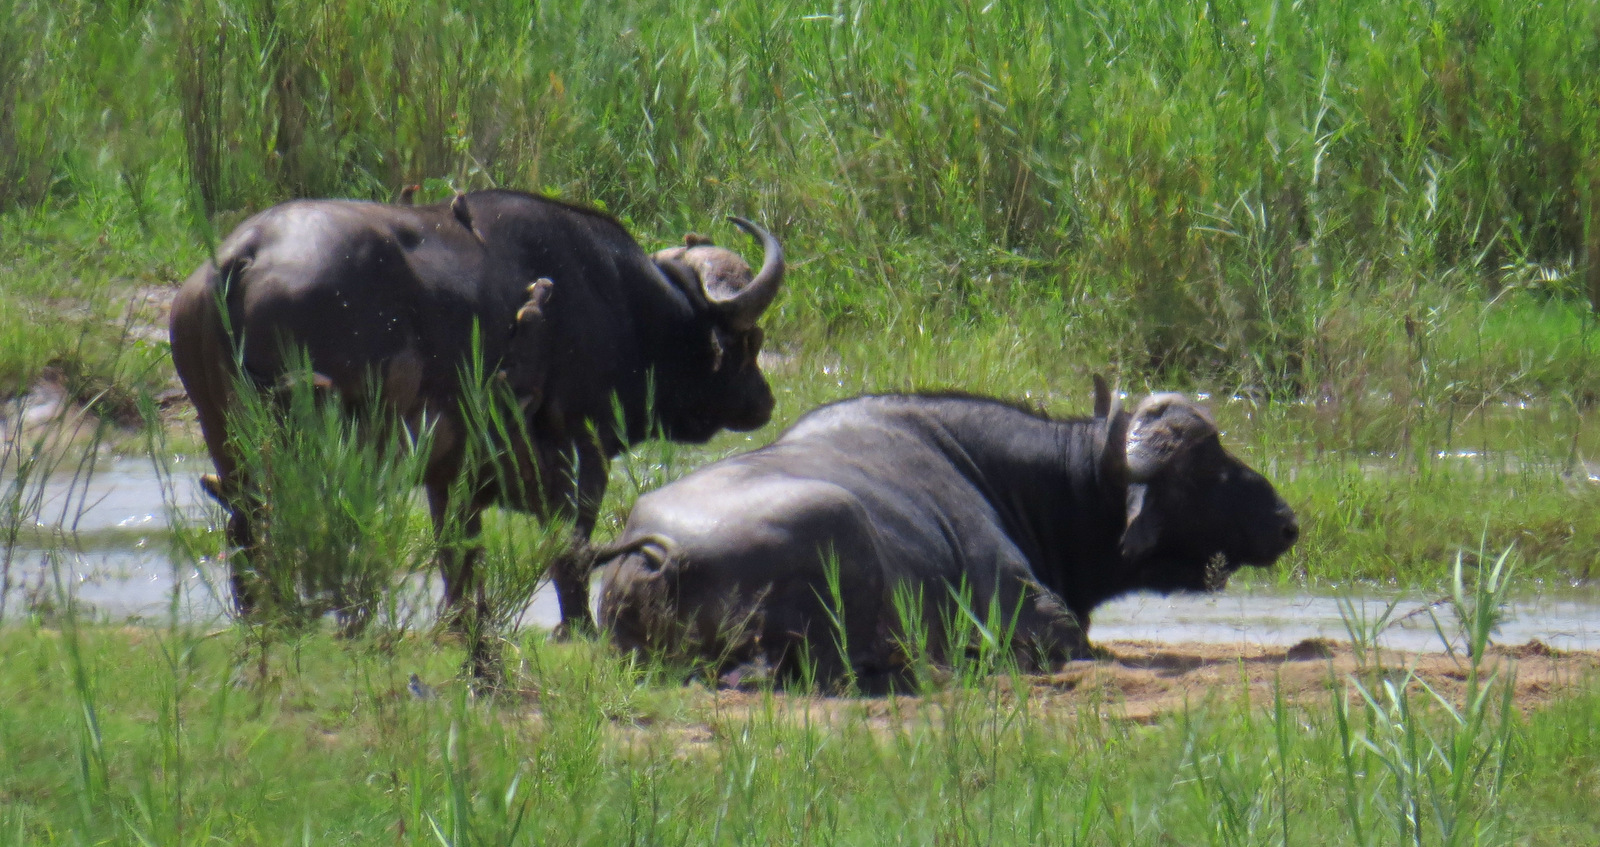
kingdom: Animalia
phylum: Chordata
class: Mammalia
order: Artiodactyla
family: Bovidae
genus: Syncerus
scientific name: Syncerus caffer
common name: African buffalo
